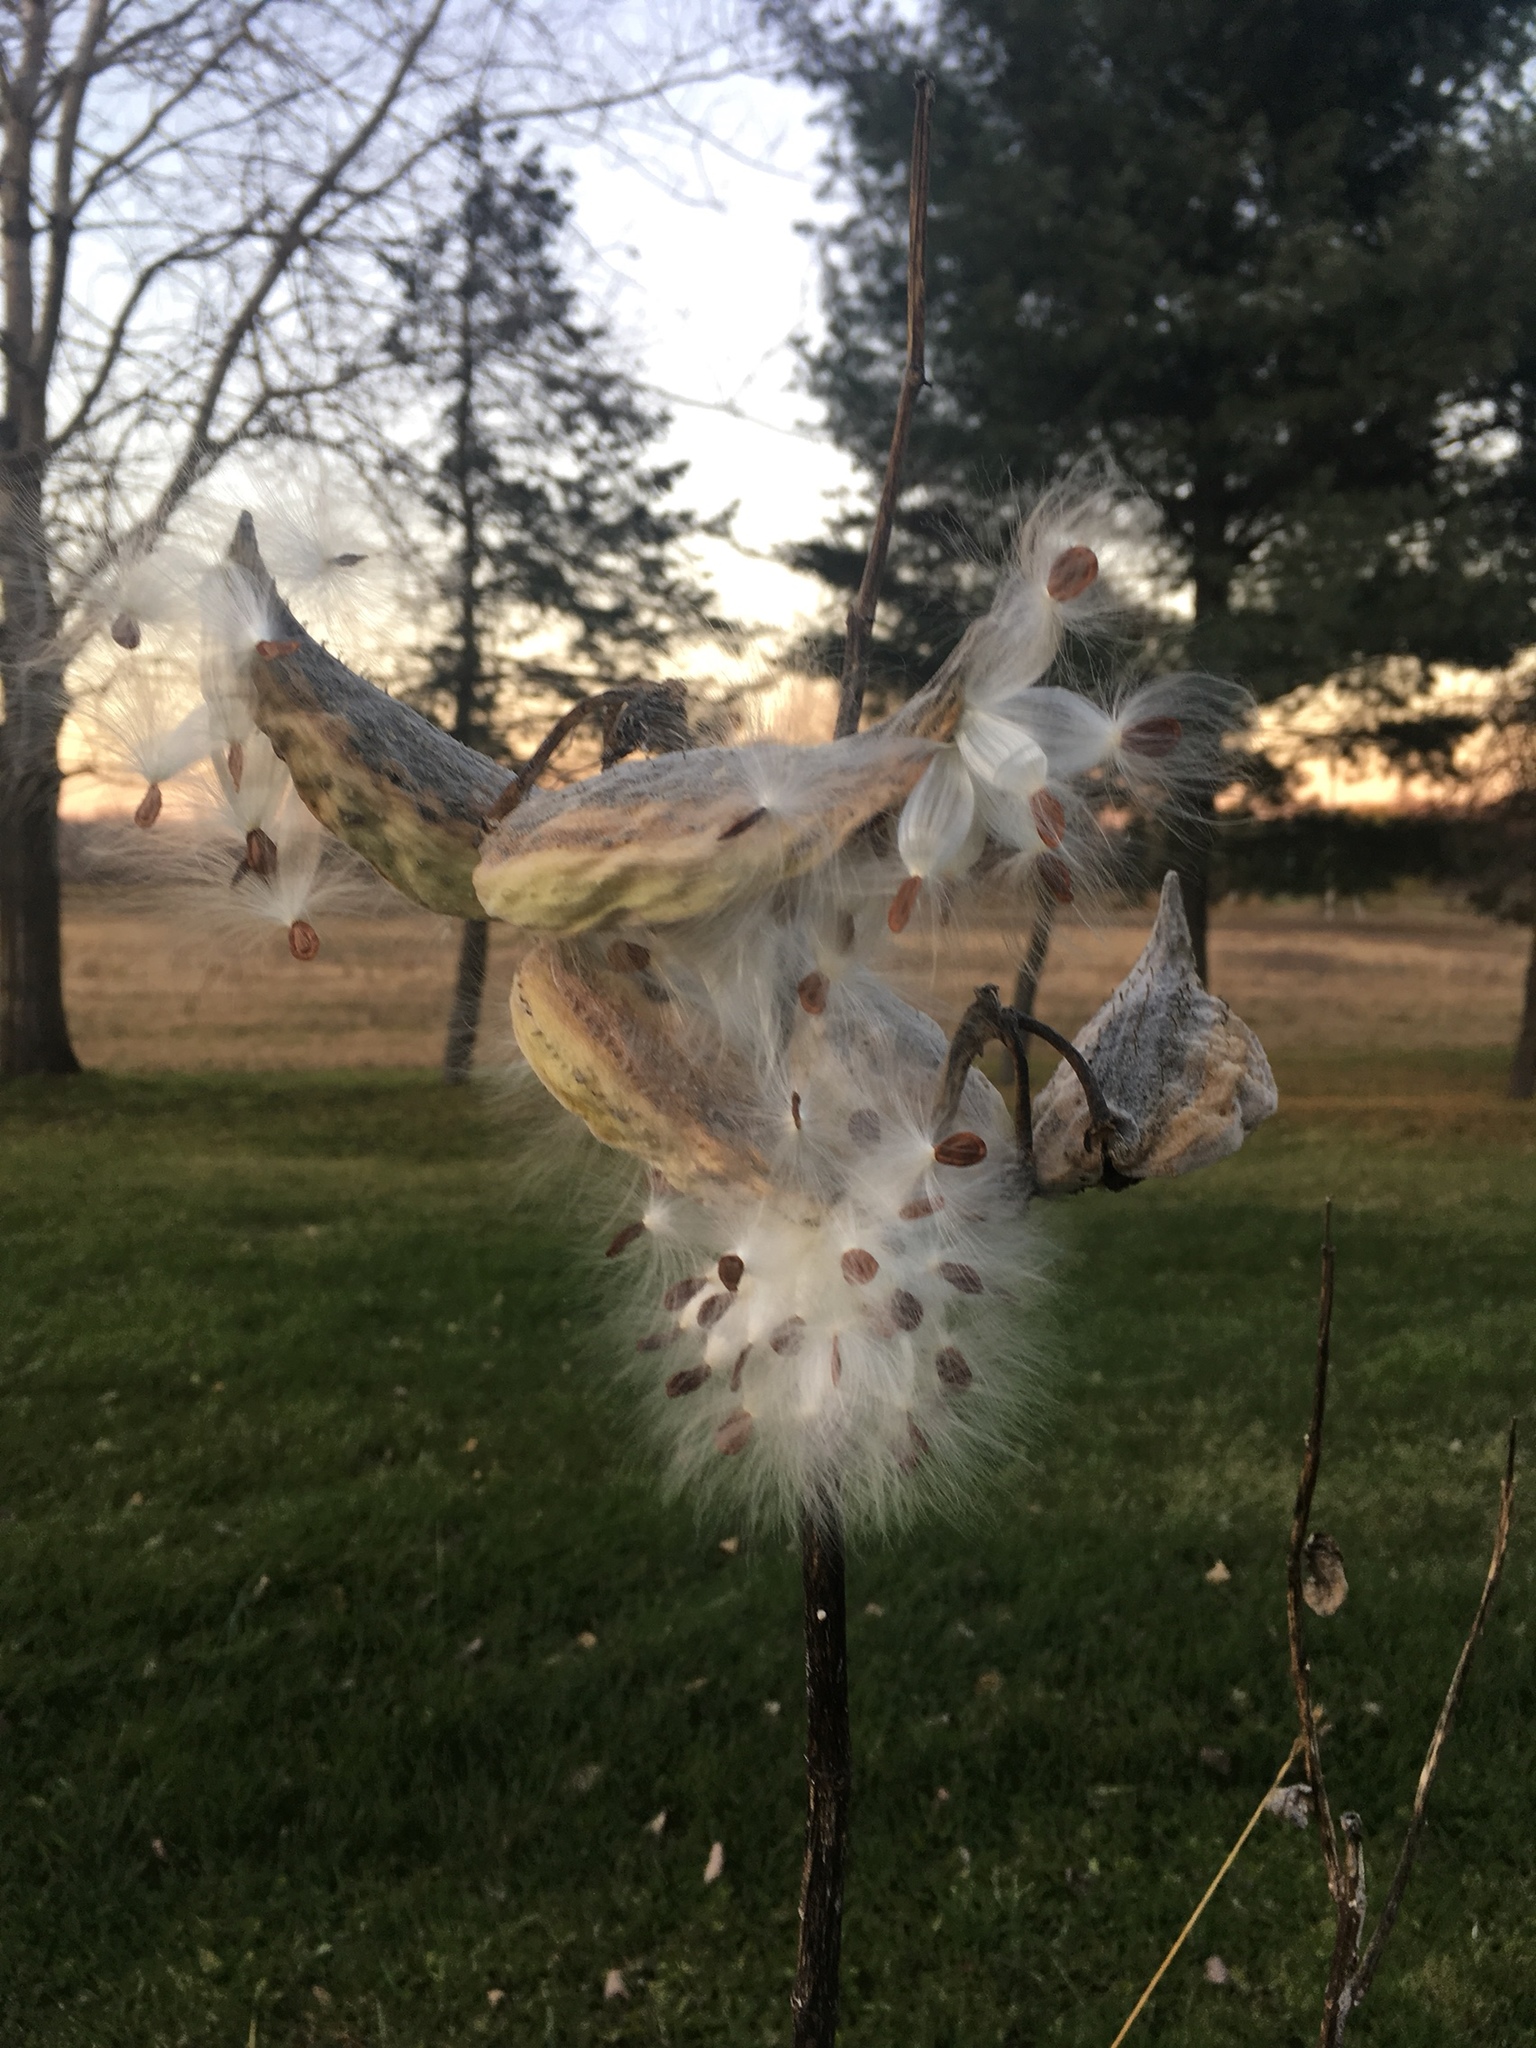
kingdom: Plantae
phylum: Tracheophyta
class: Magnoliopsida
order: Gentianales
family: Apocynaceae
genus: Asclepias
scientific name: Asclepias syriaca
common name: Common milkweed
